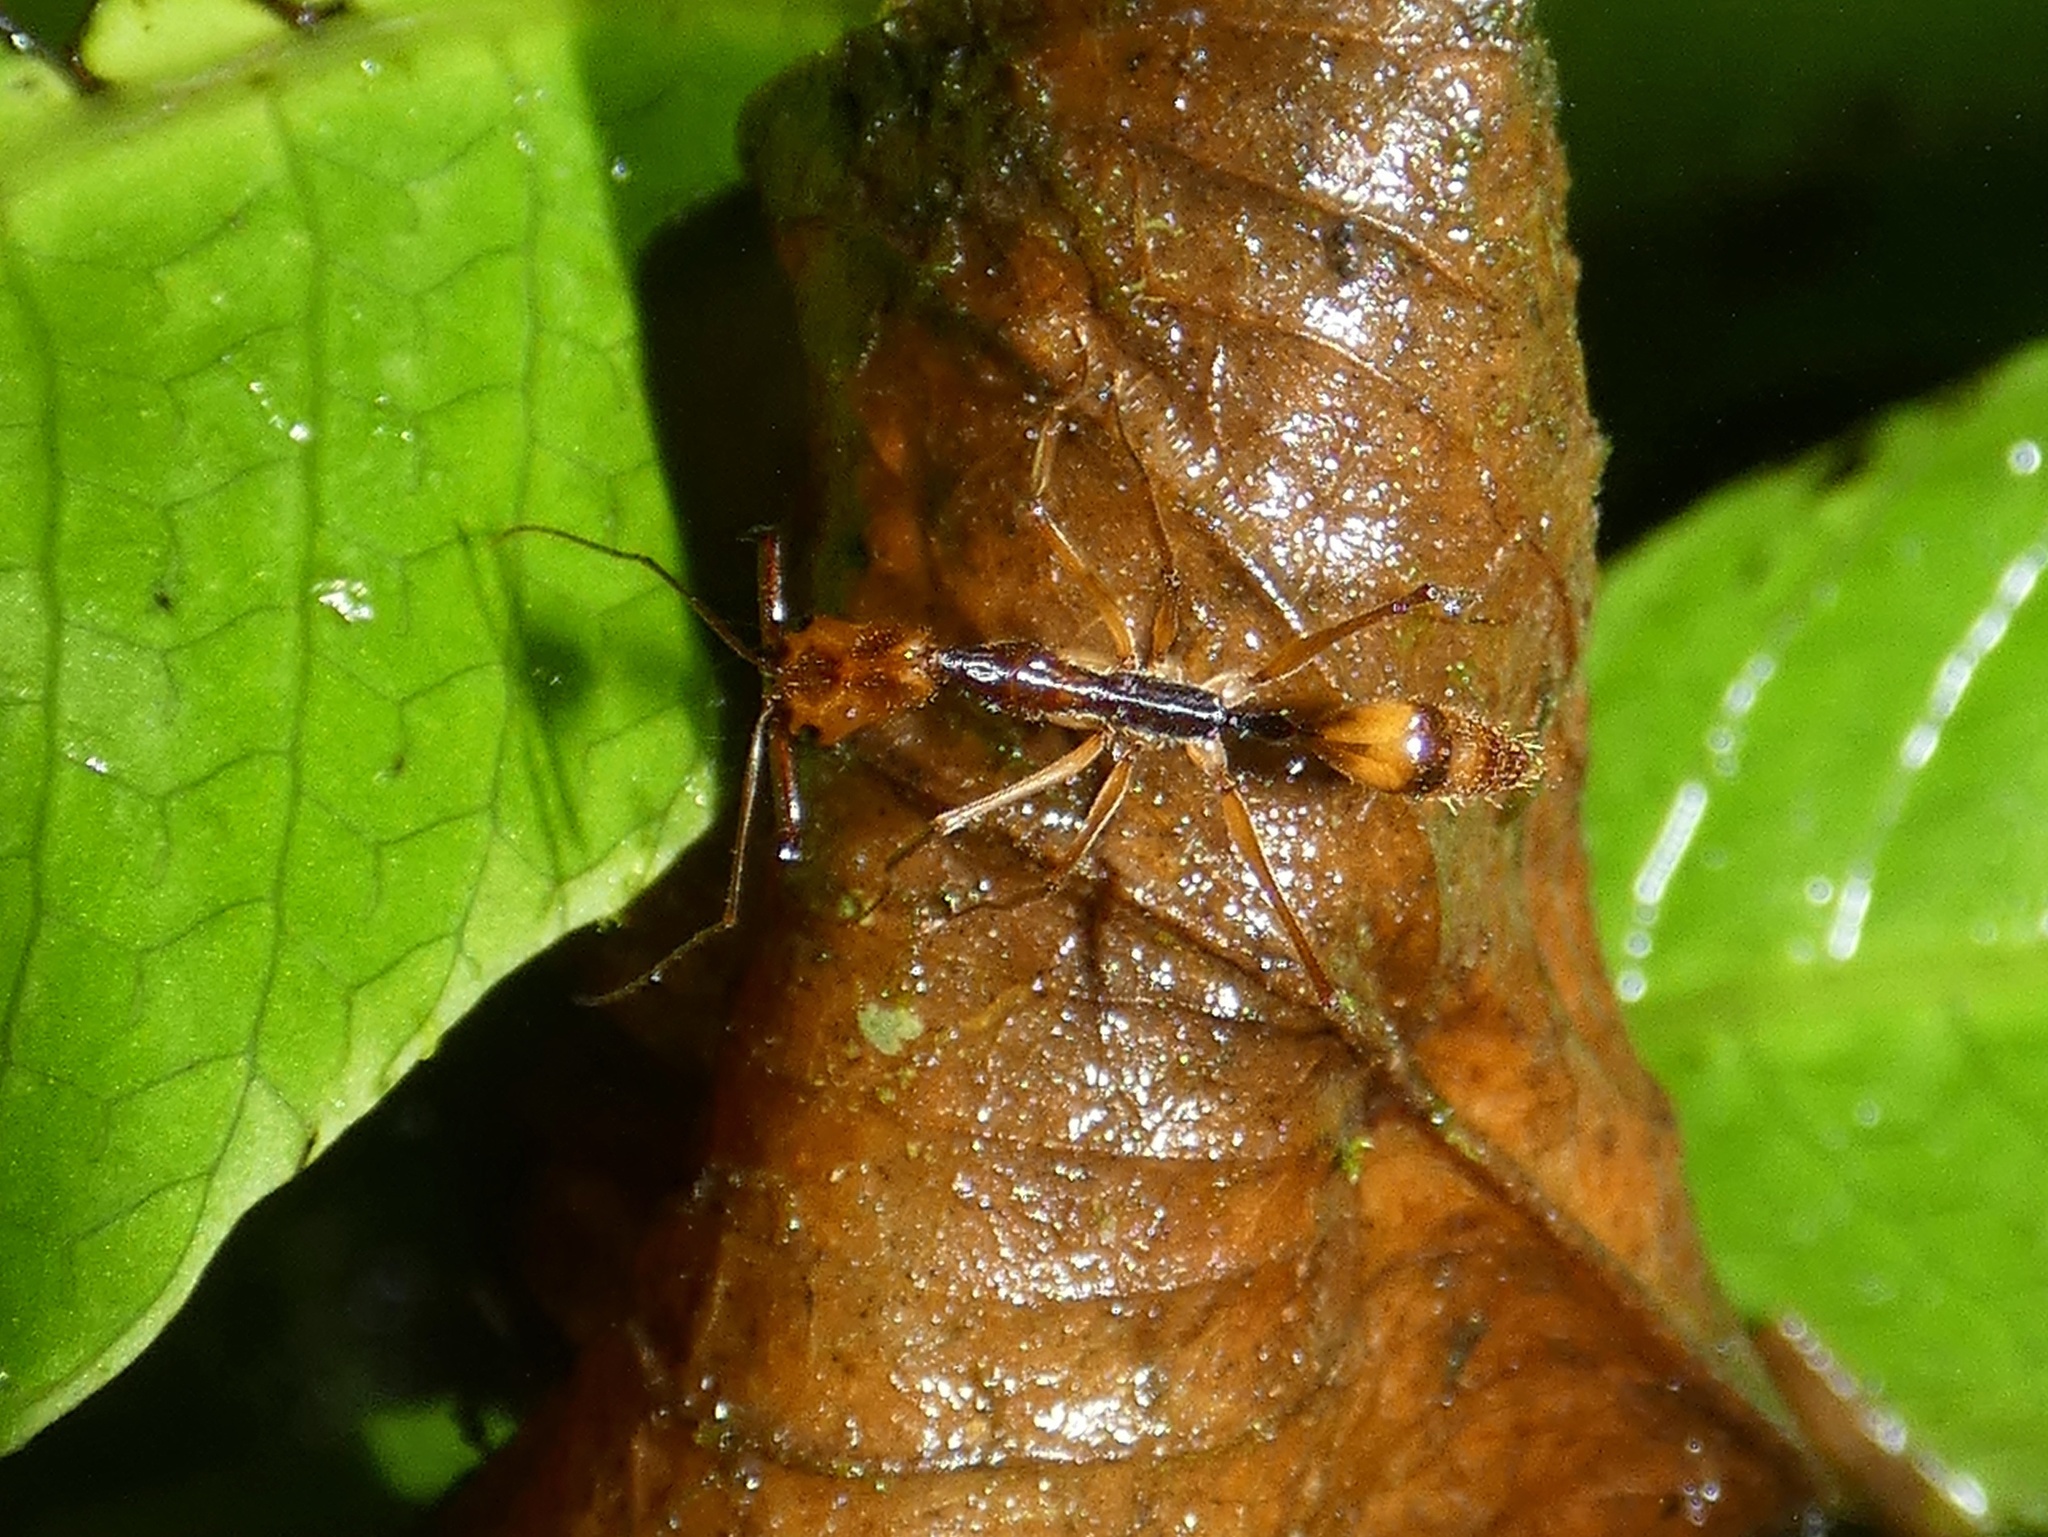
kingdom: Animalia
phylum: Arthropoda
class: Insecta
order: Hymenoptera
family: Formicidae
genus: Odontomachus
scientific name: Odontomachus hastatus
